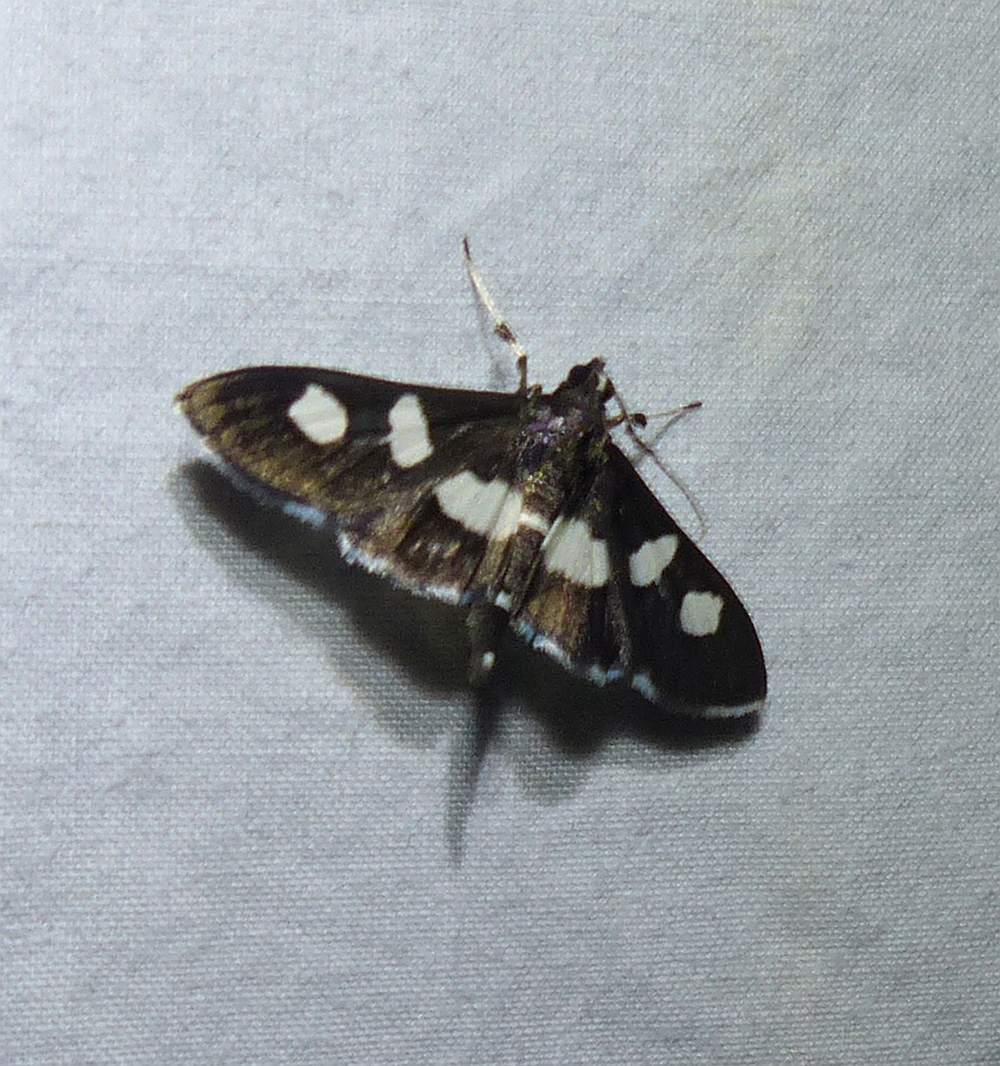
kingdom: Animalia
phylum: Arthropoda
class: Insecta
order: Lepidoptera
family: Crambidae
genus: Desmia
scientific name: Desmia
